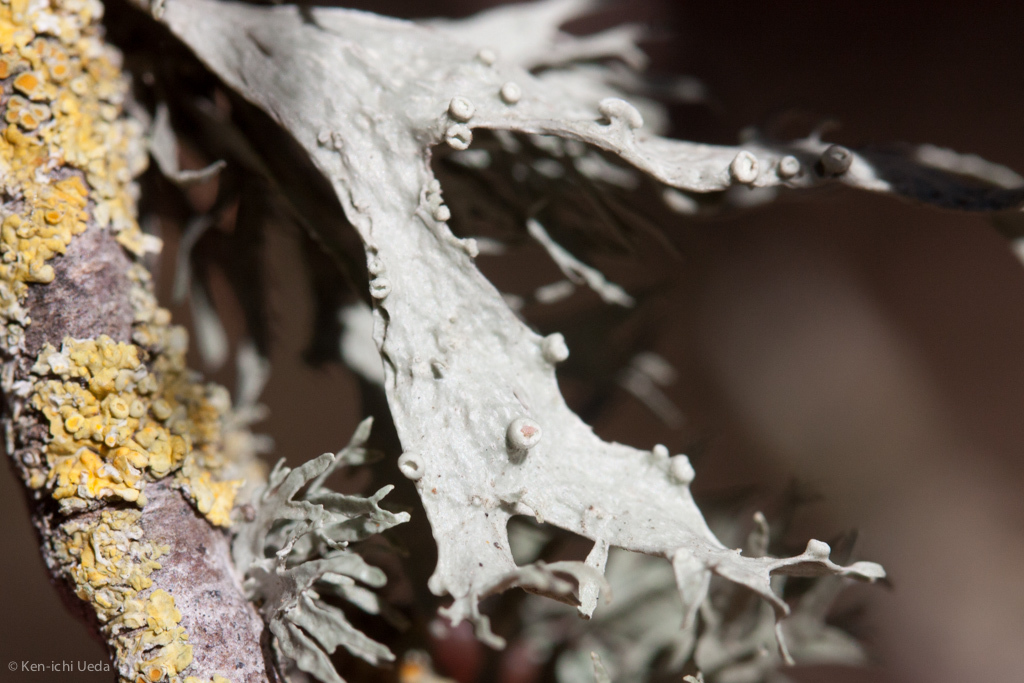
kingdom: Fungi
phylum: Ascomycota
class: Lecanoromycetes
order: Lecanorales
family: Ramalinaceae
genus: Ramalina
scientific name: Ramalina leptocarpha
